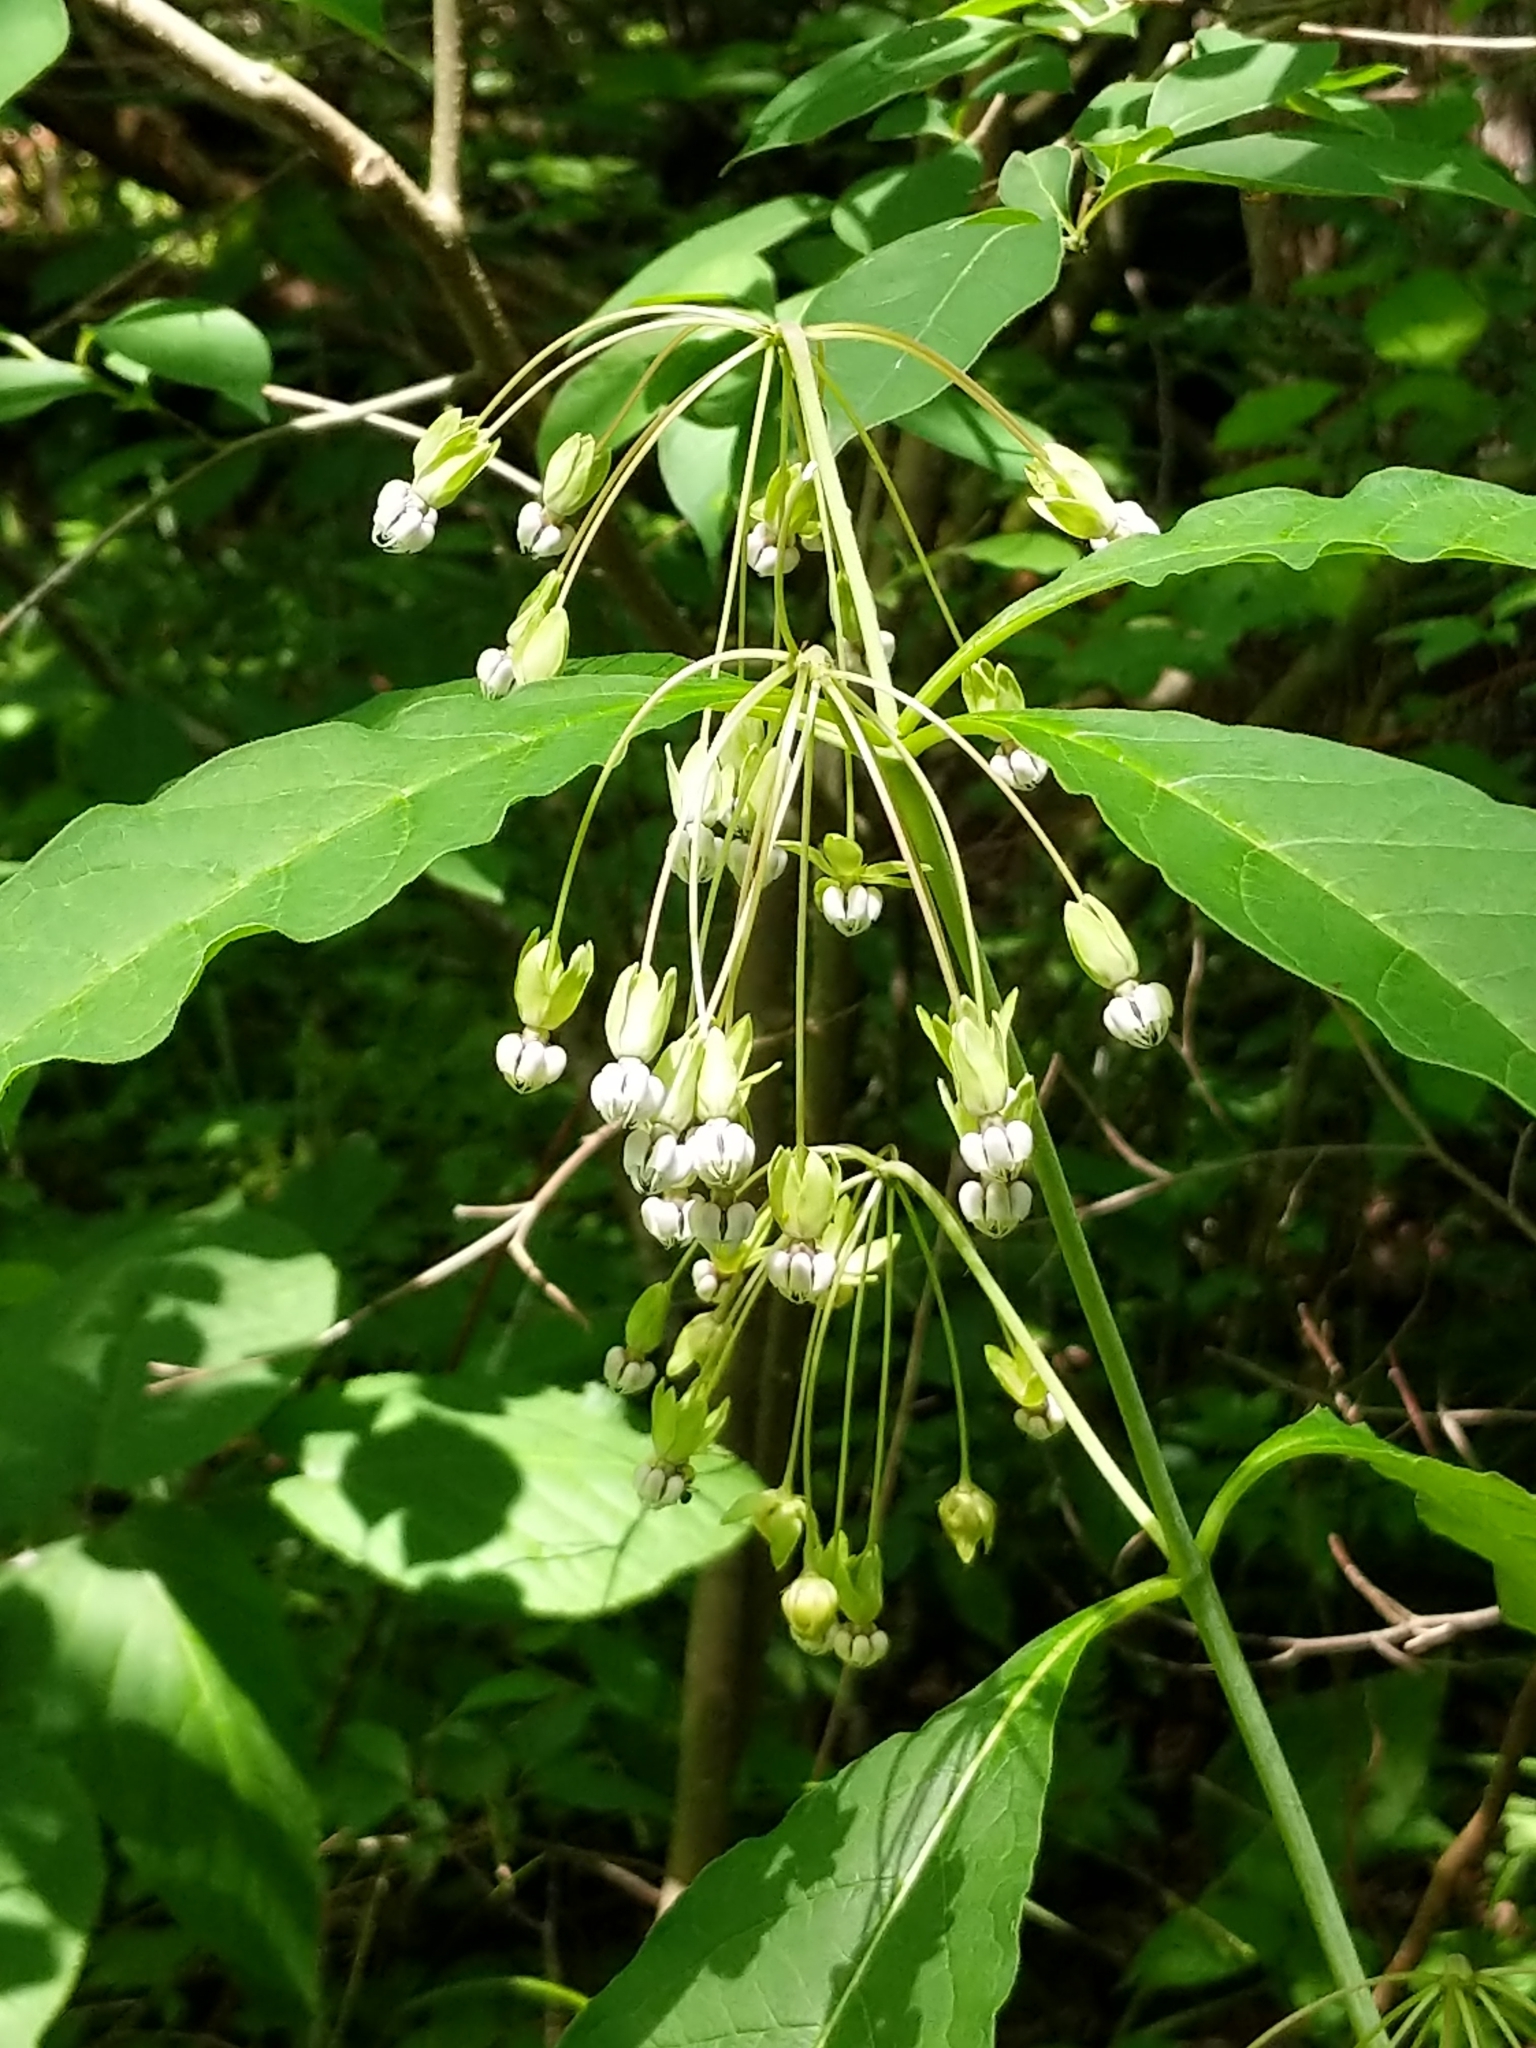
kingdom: Plantae
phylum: Tracheophyta
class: Magnoliopsida
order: Gentianales
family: Apocynaceae
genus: Asclepias
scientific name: Asclepias exaltata
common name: Poke milkweed
